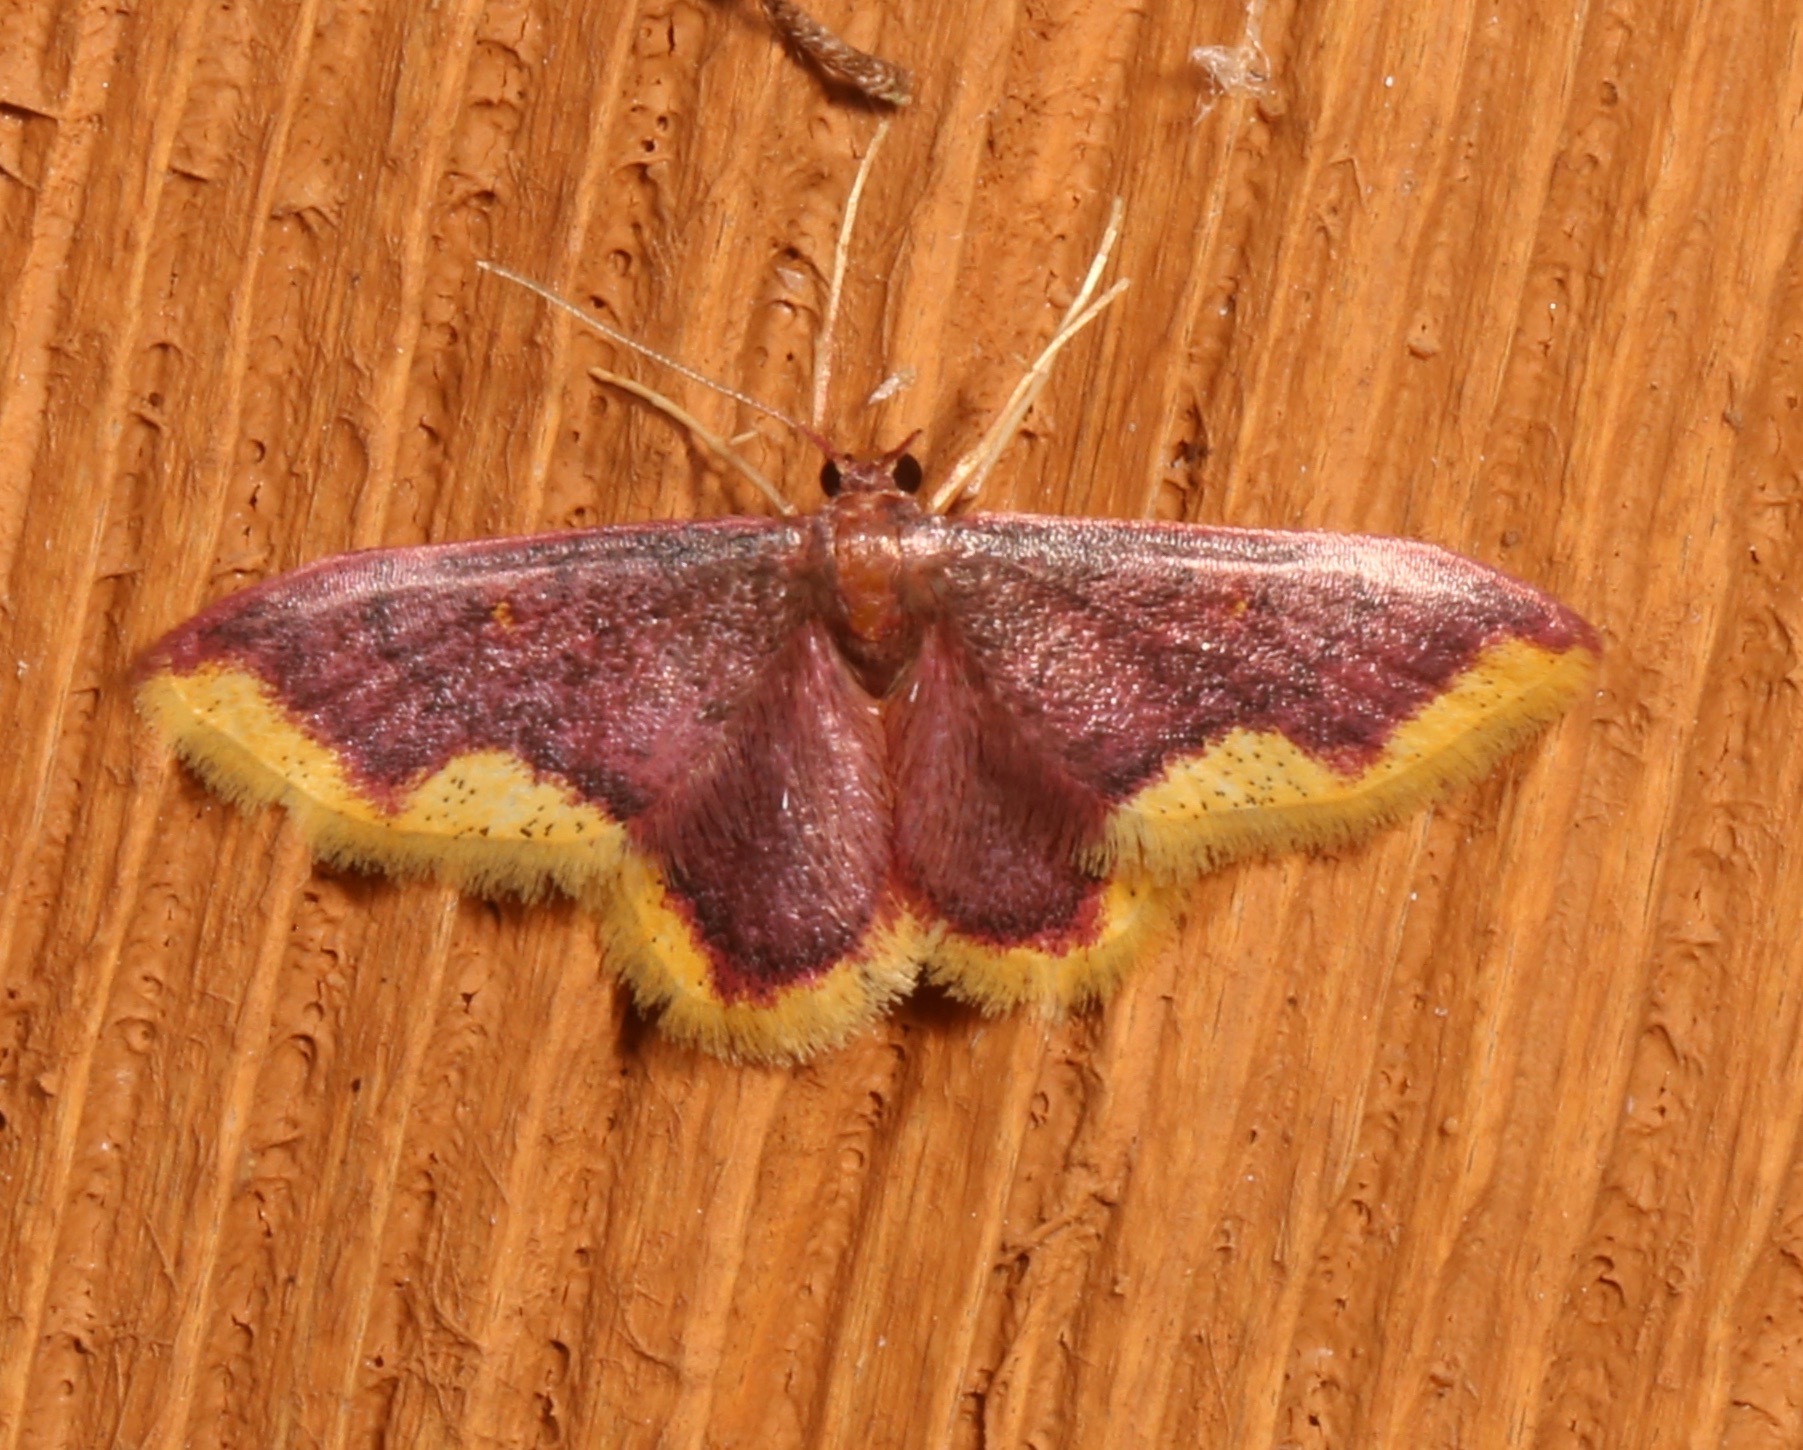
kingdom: Animalia
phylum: Arthropoda
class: Insecta
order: Lepidoptera
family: Geometridae
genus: Lophosis
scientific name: Lophosis labeculata
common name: Stained lophosis moth
